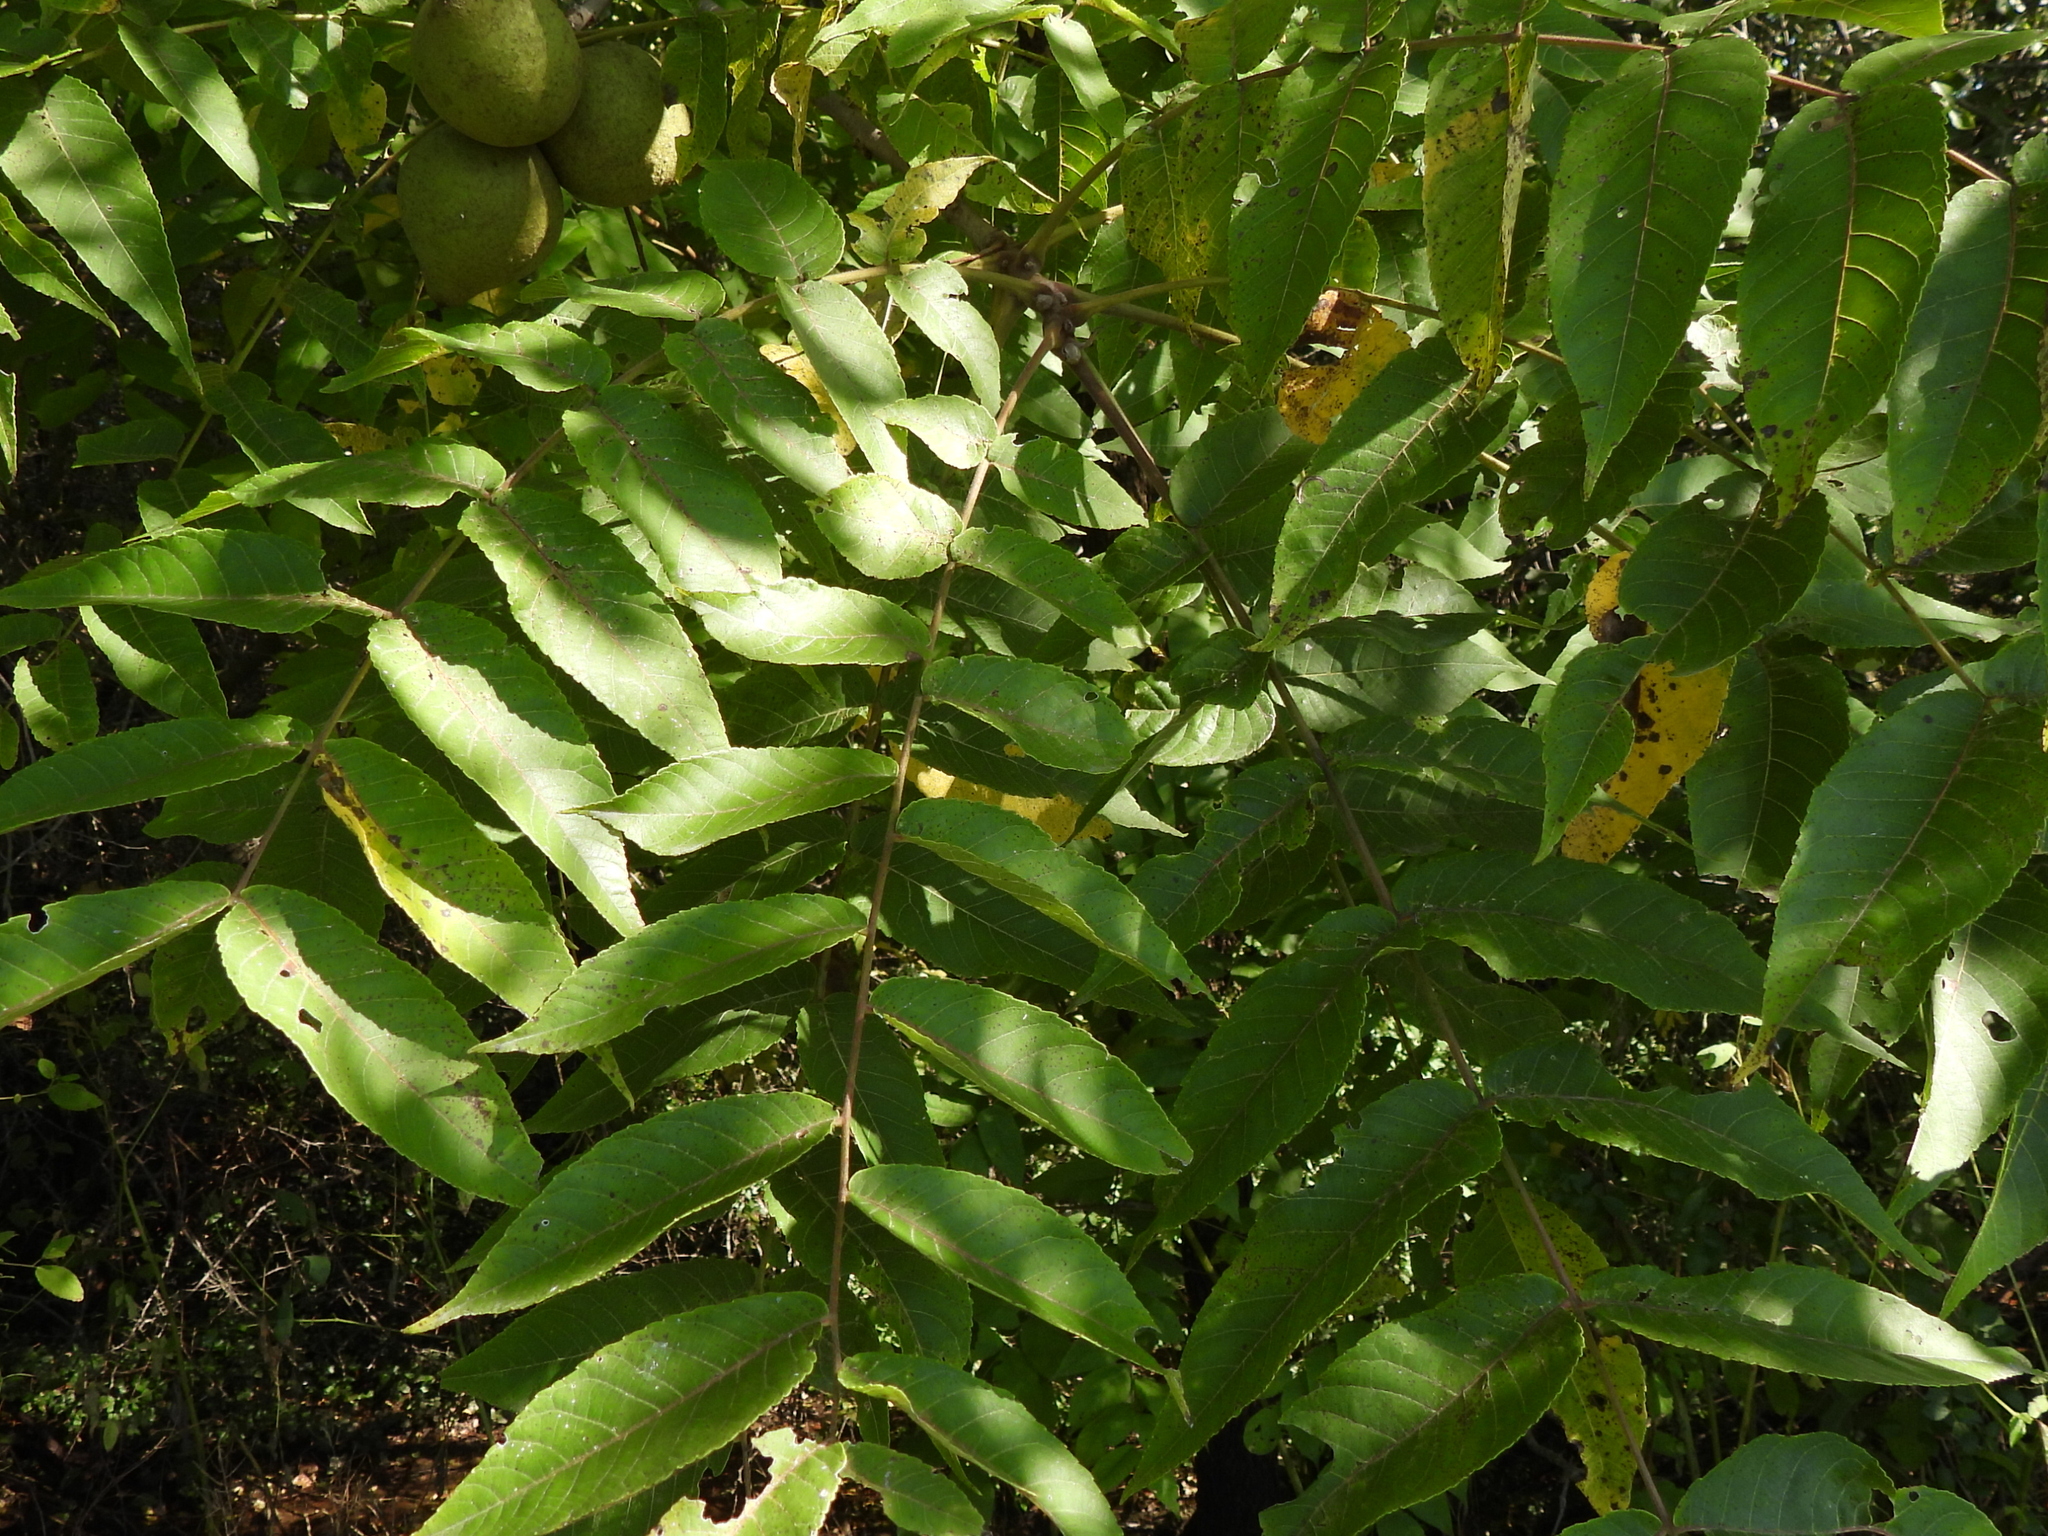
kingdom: Plantae
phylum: Tracheophyta
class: Magnoliopsida
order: Fagales
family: Juglandaceae
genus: Juglans
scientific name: Juglans nigra
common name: Black walnut
